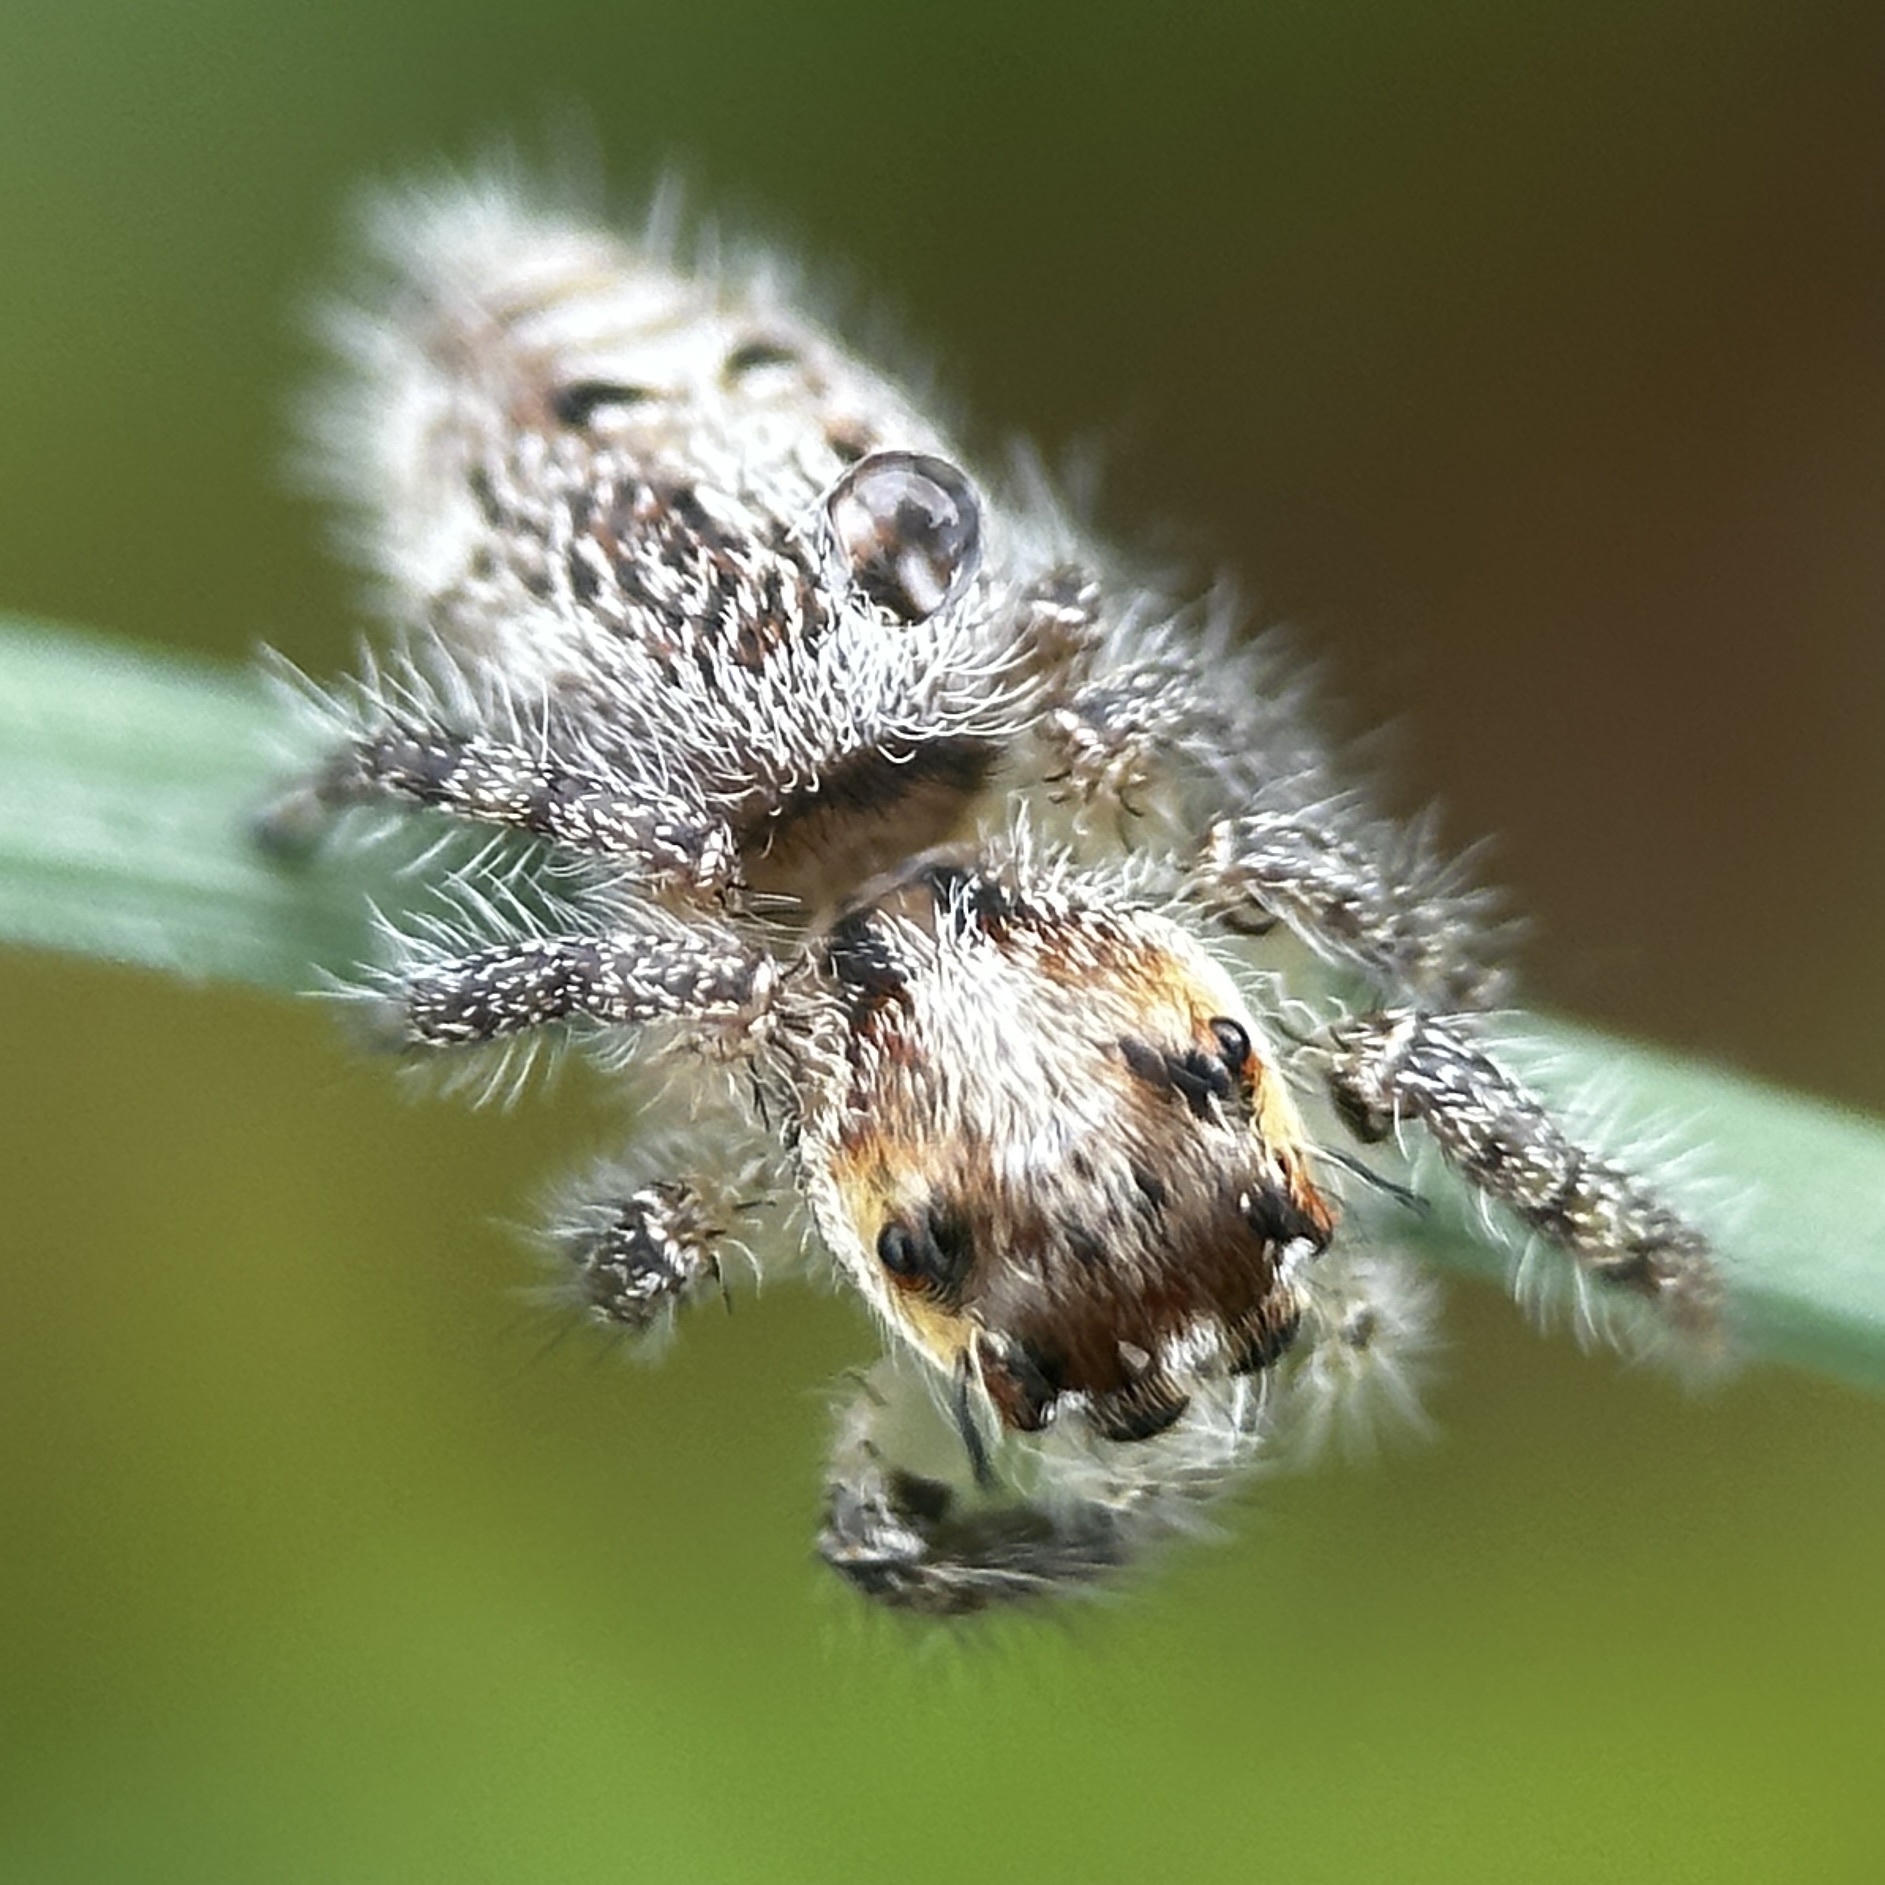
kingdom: Animalia
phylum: Arthropoda
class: Arachnida
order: Araneae
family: Salticidae
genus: Hyllus
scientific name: Hyllus semicupreus
